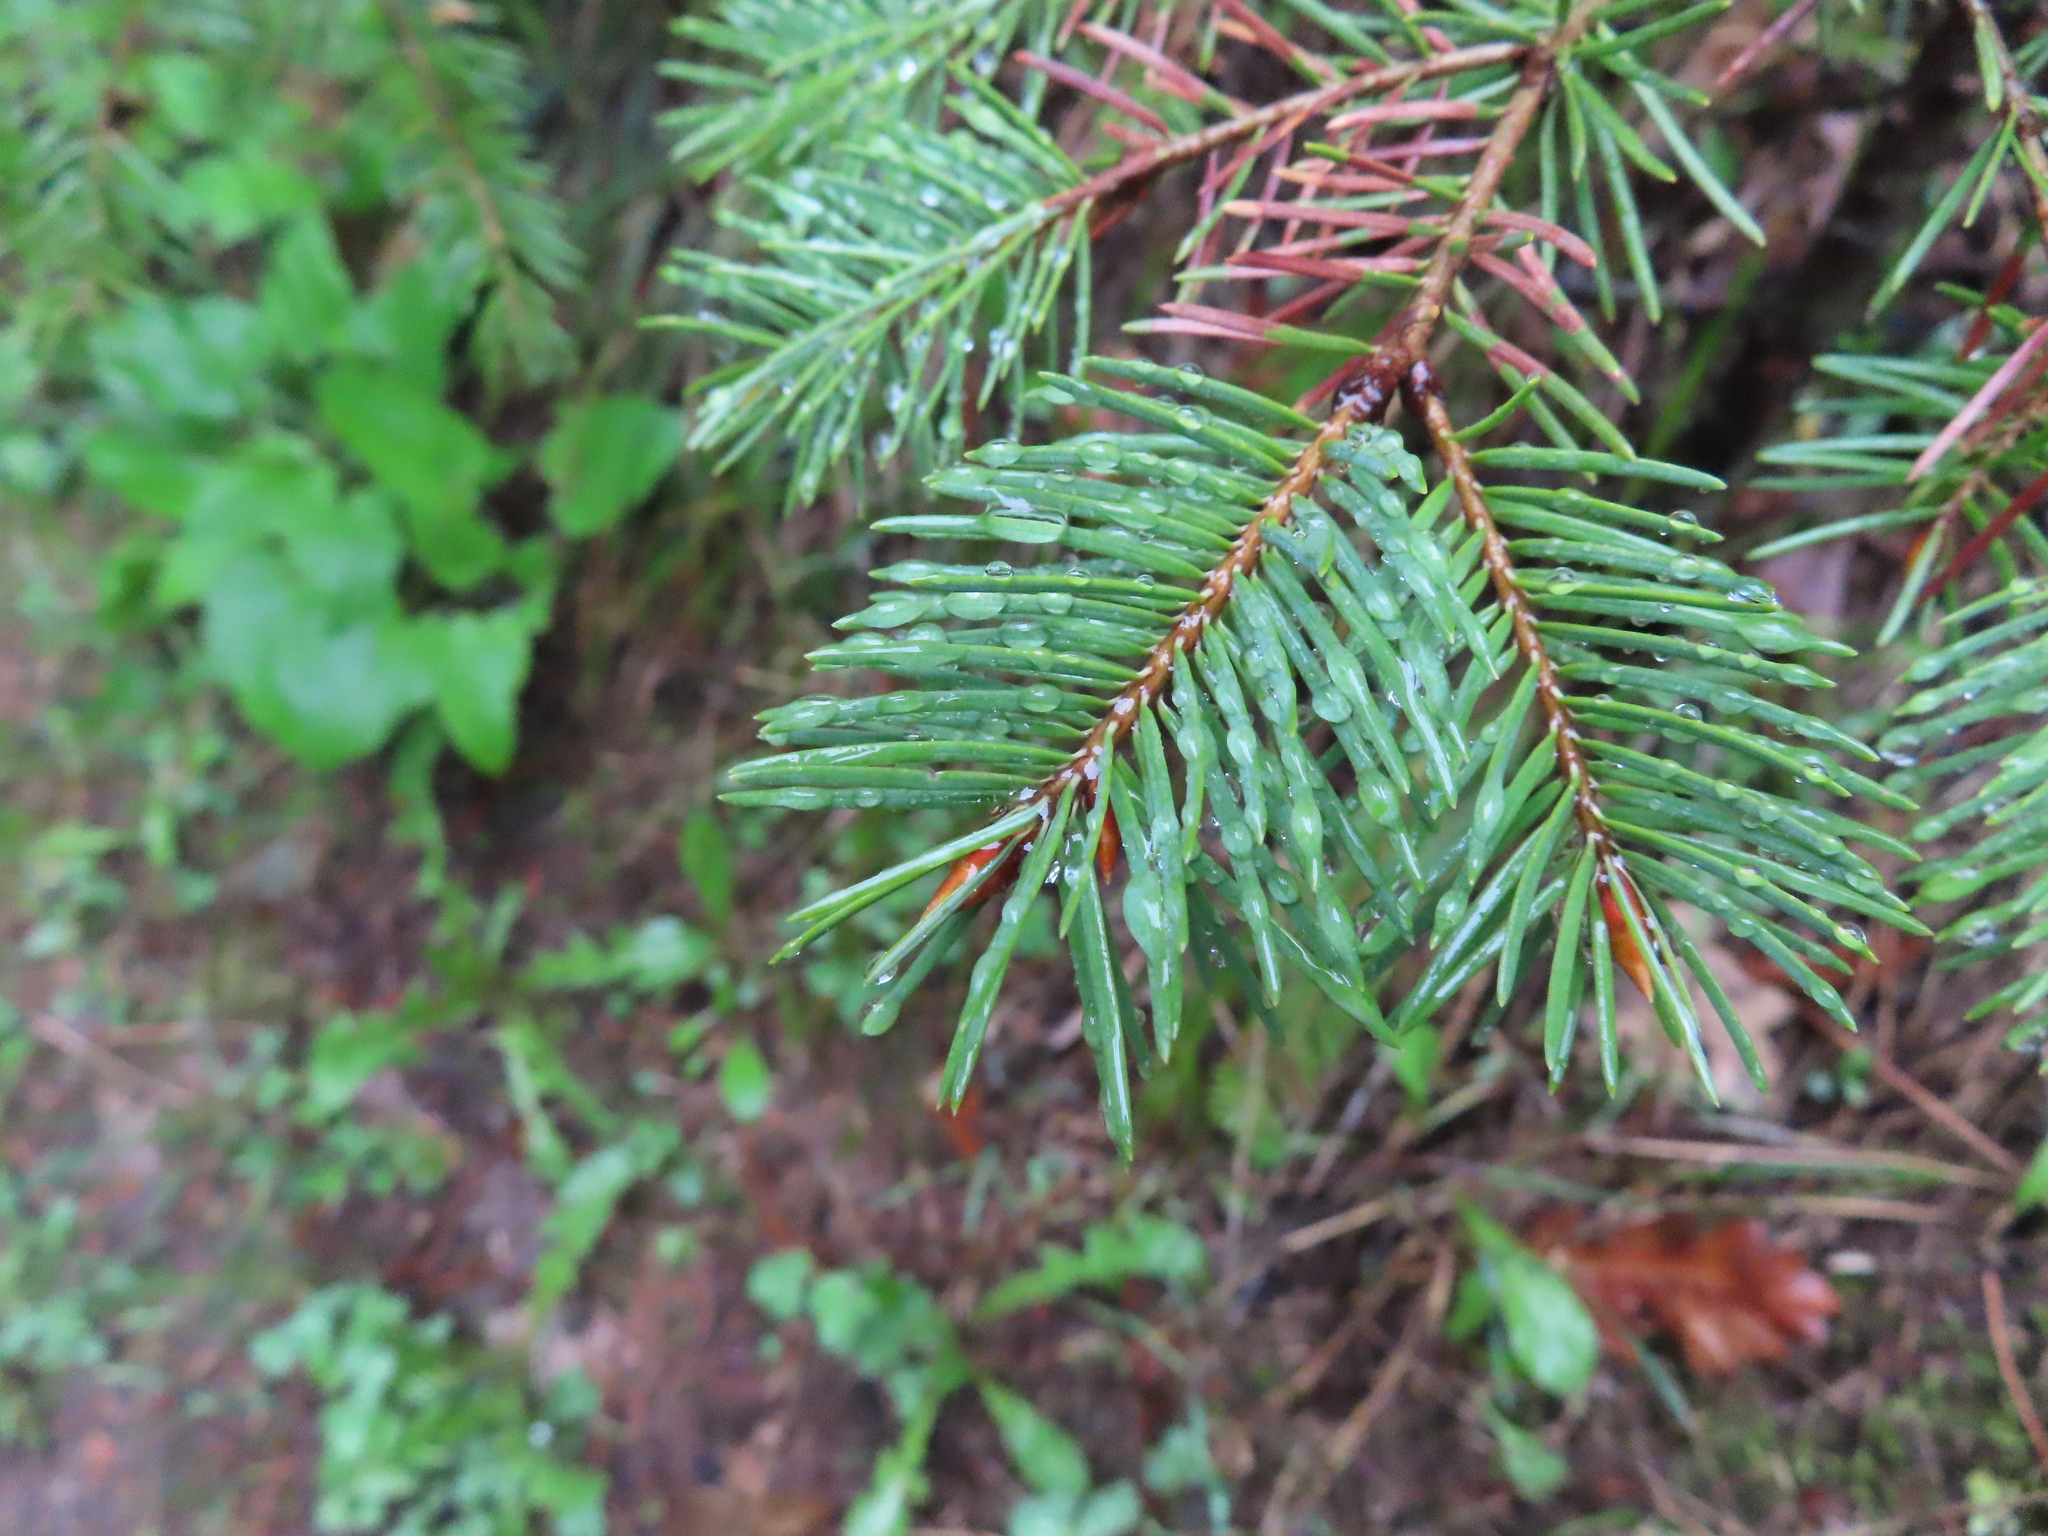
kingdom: Plantae
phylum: Tracheophyta
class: Pinopsida
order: Pinales
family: Pinaceae
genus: Pseudotsuga
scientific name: Pseudotsuga menziesii
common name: Douglas fir
